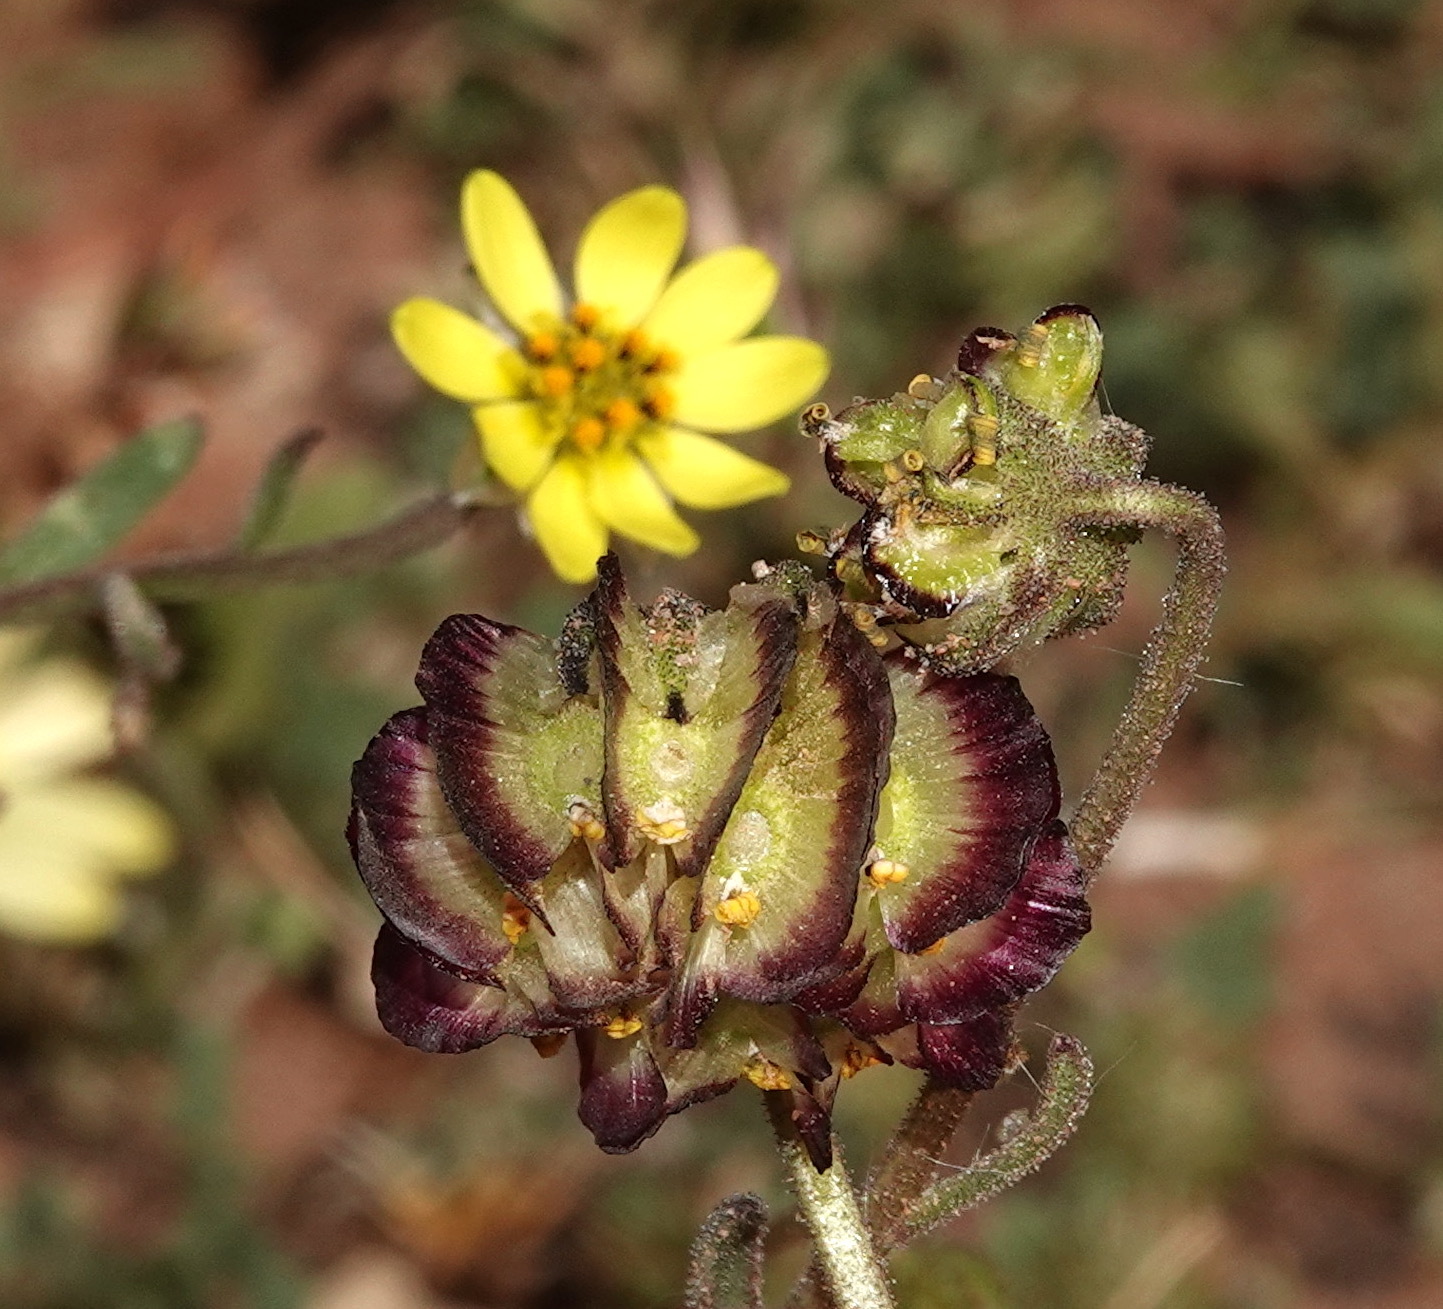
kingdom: Plantae
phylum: Tracheophyta
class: Magnoliopsida
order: Asterales
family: Asteraceae
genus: Osteospermum
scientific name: Osteospermum monstrosum
